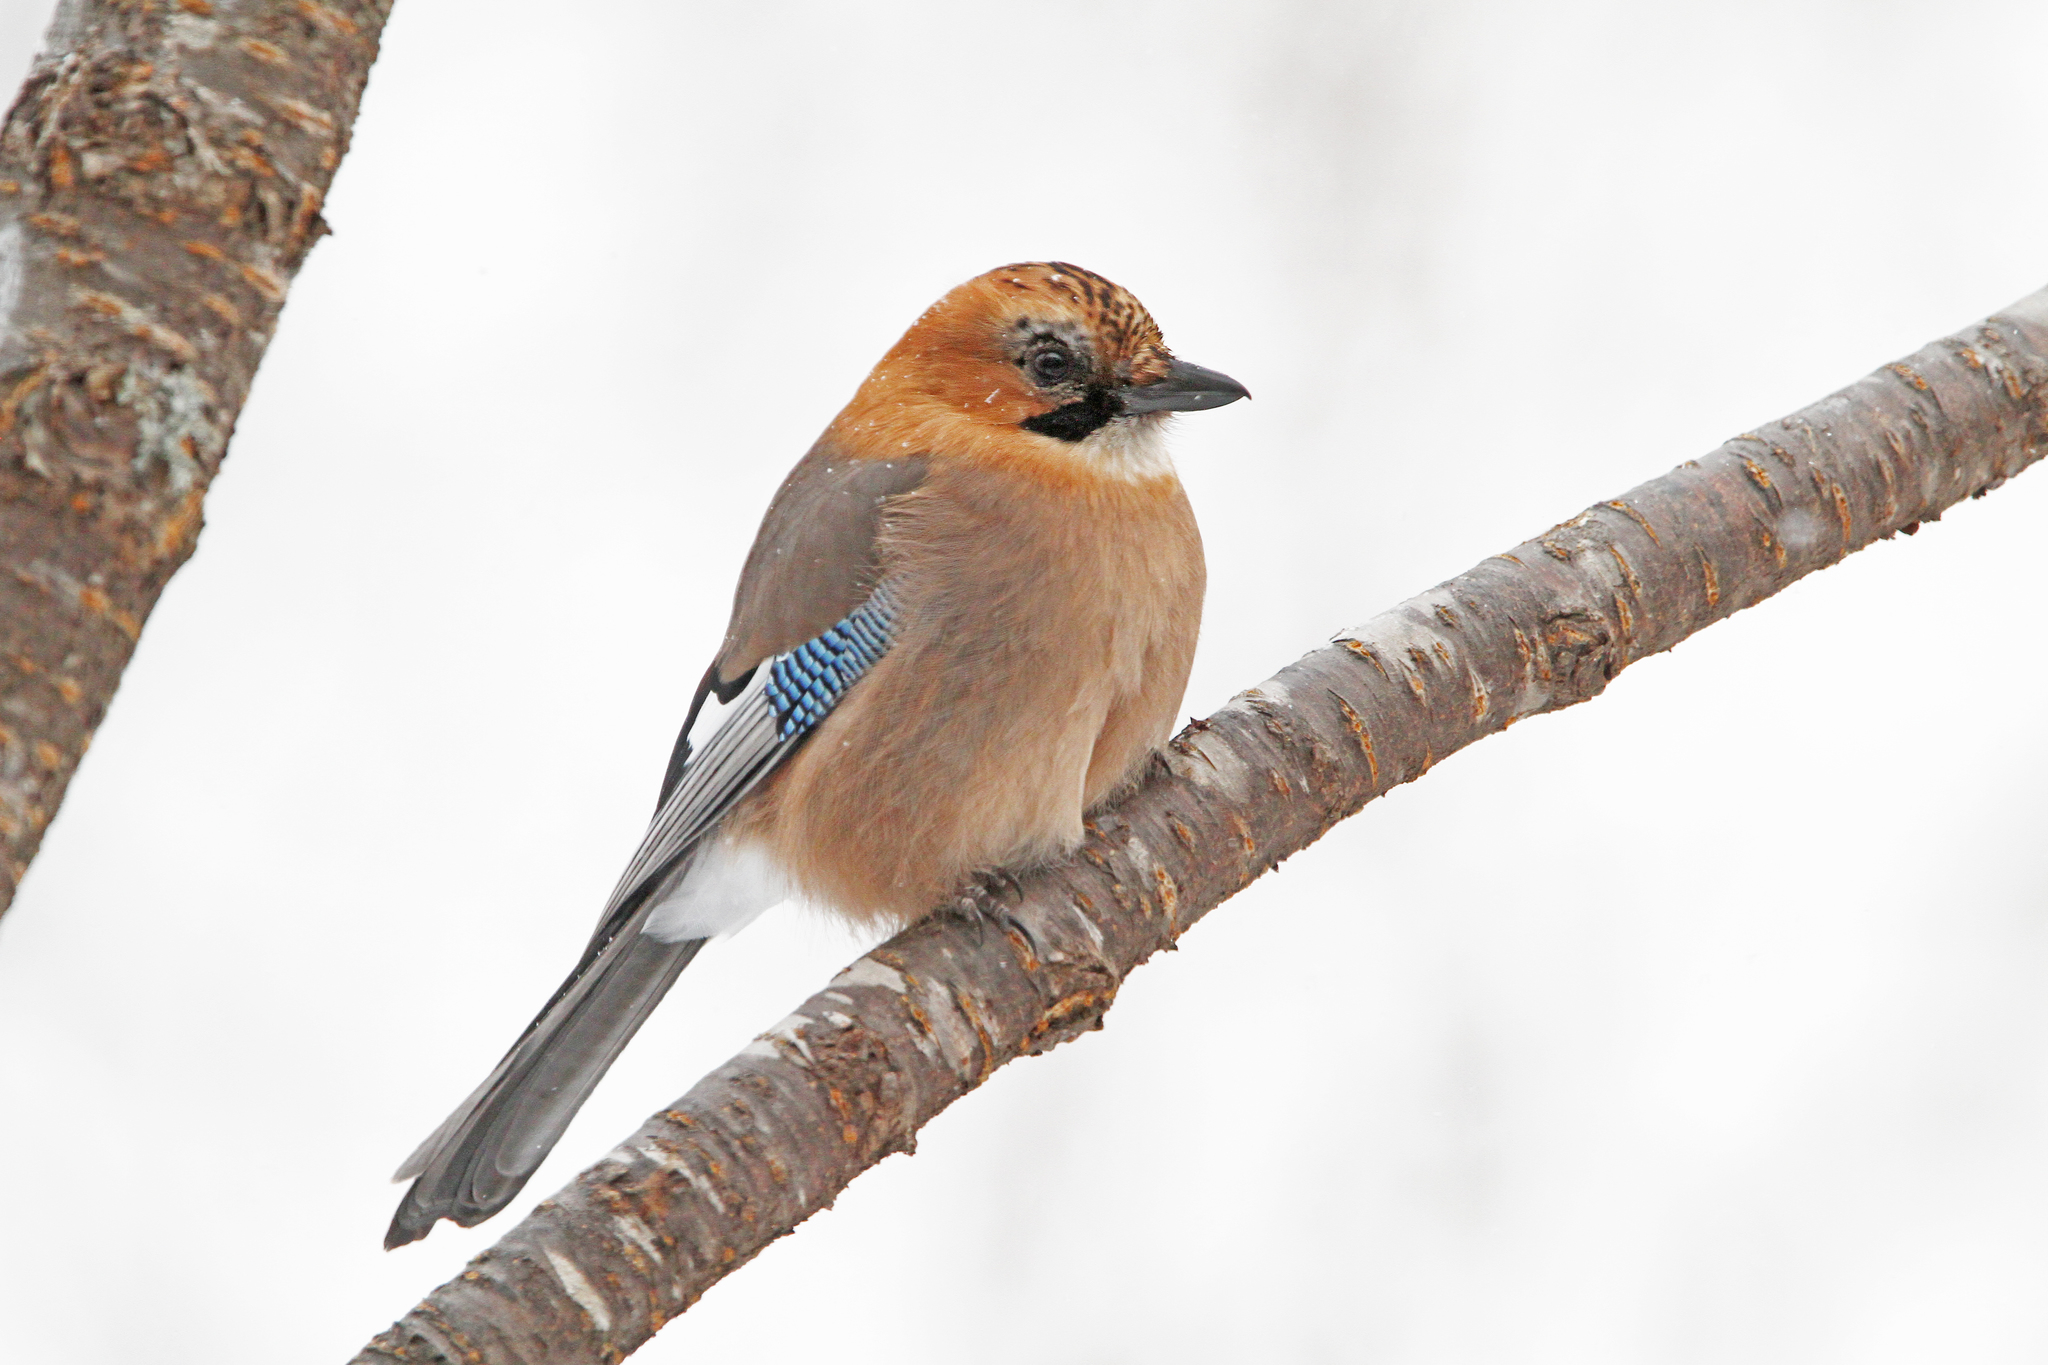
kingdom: Animalia
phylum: Chordata
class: Aves
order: Passeriformes
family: Corvidae
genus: Garrulus
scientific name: Garrulus glandarius
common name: Eurasian jay
